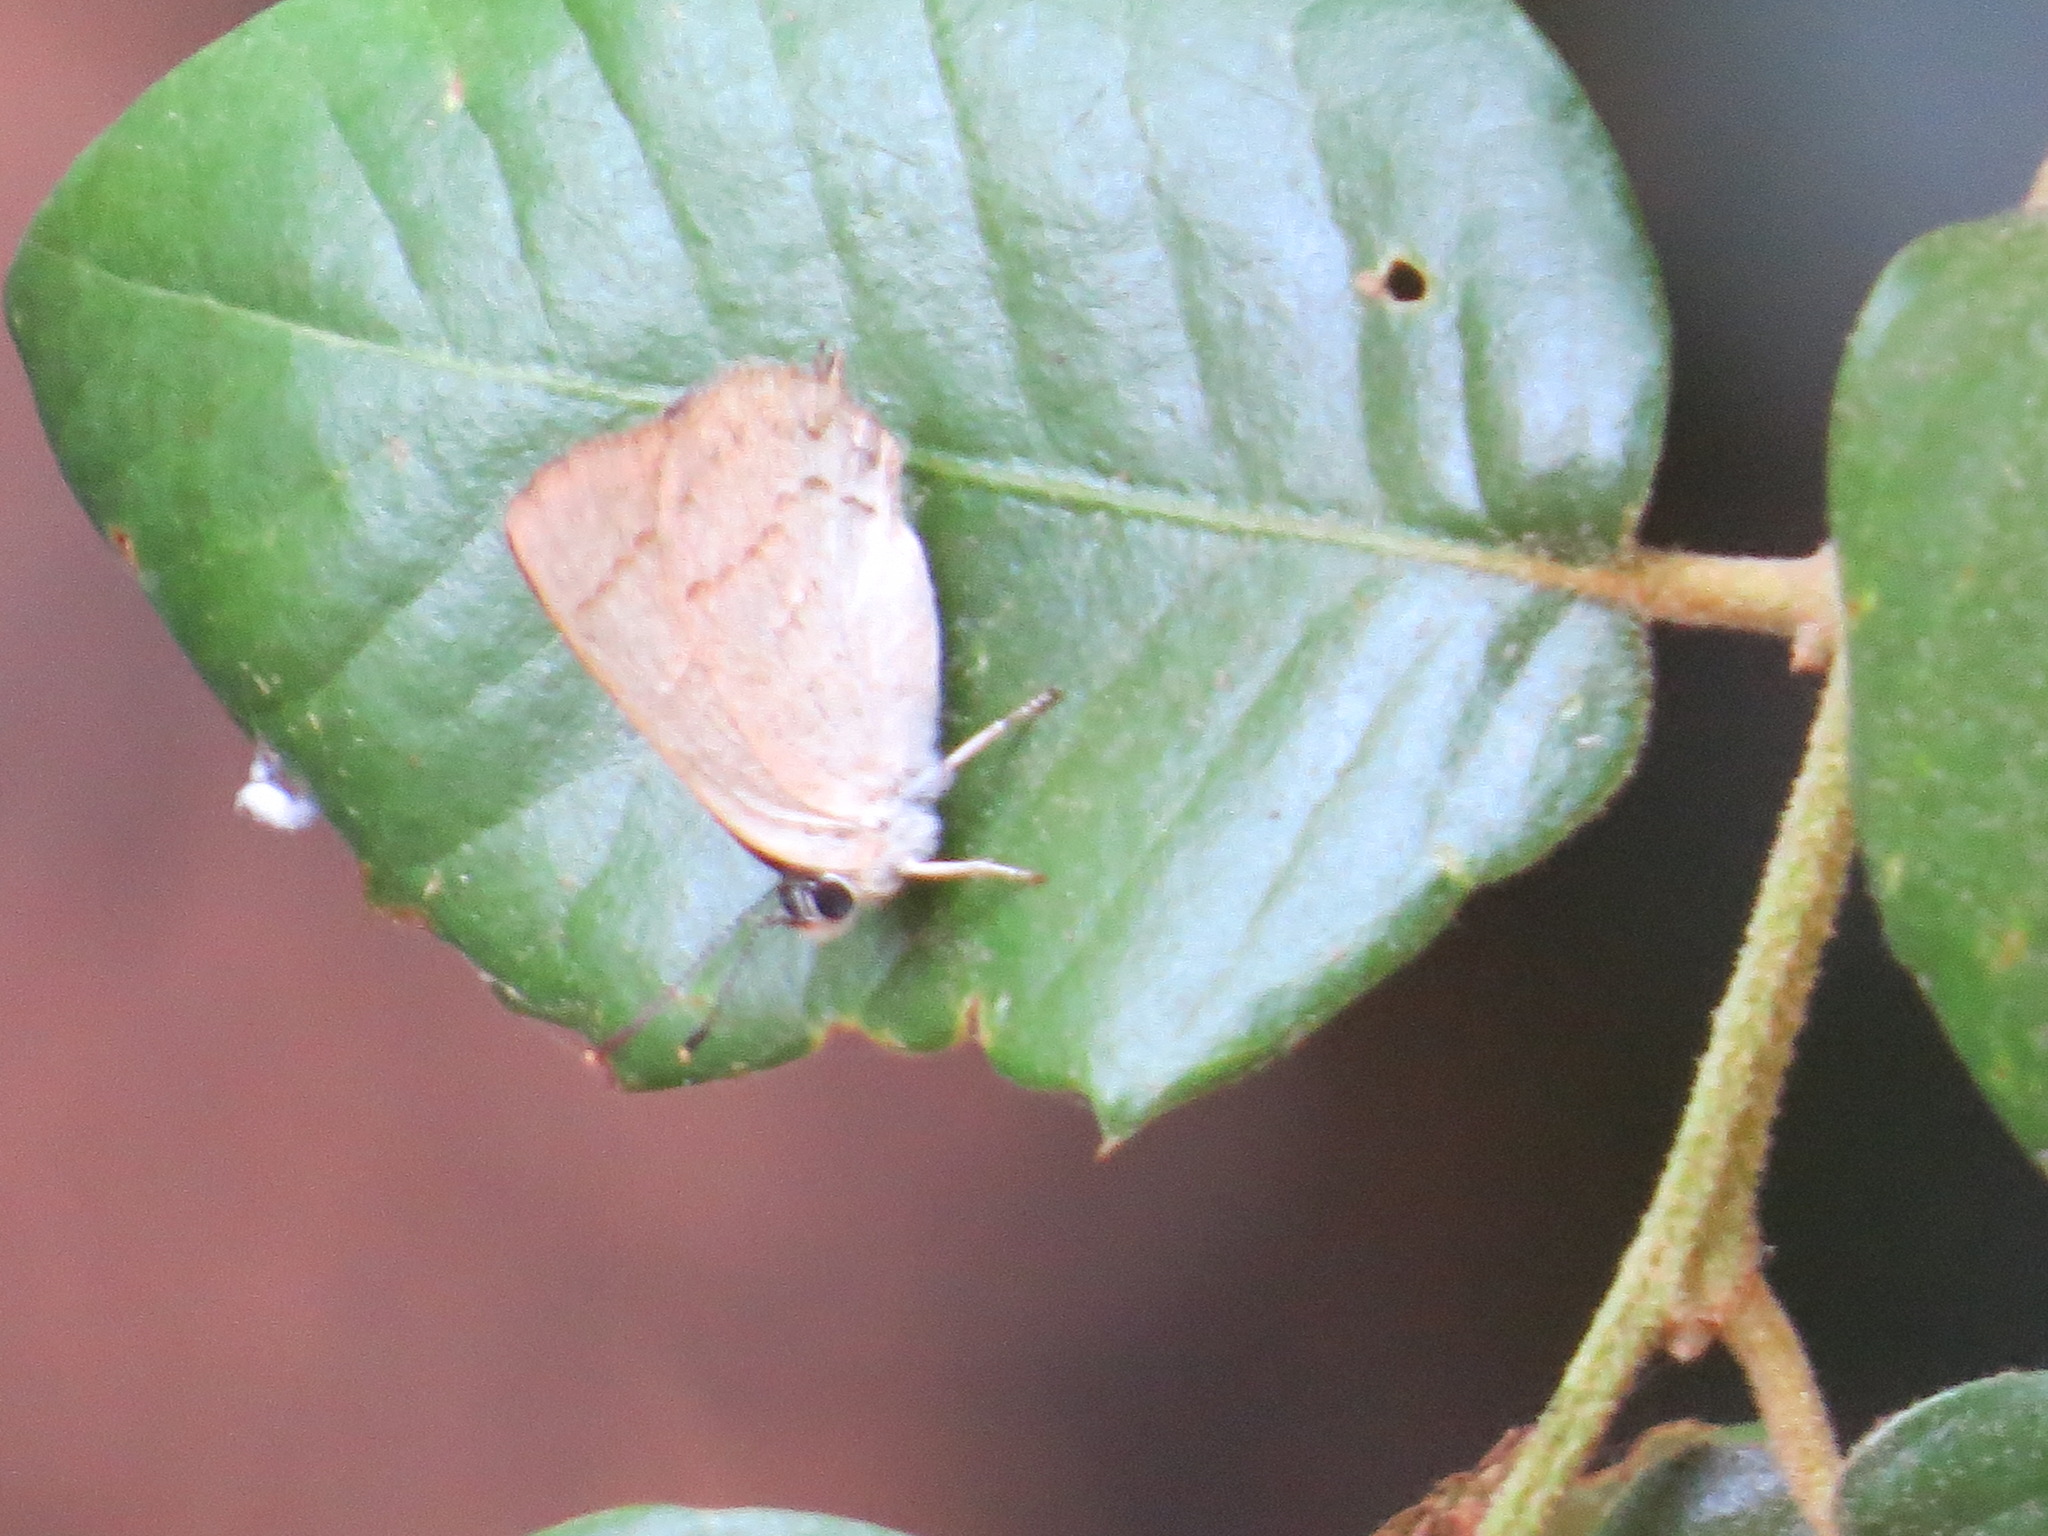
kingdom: Animalia
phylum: Arthropoda
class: Insecta
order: Lepidoptera
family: Lycaenidae
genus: Habrodais
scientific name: Habrodais grunus
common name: Golden hairstreak
